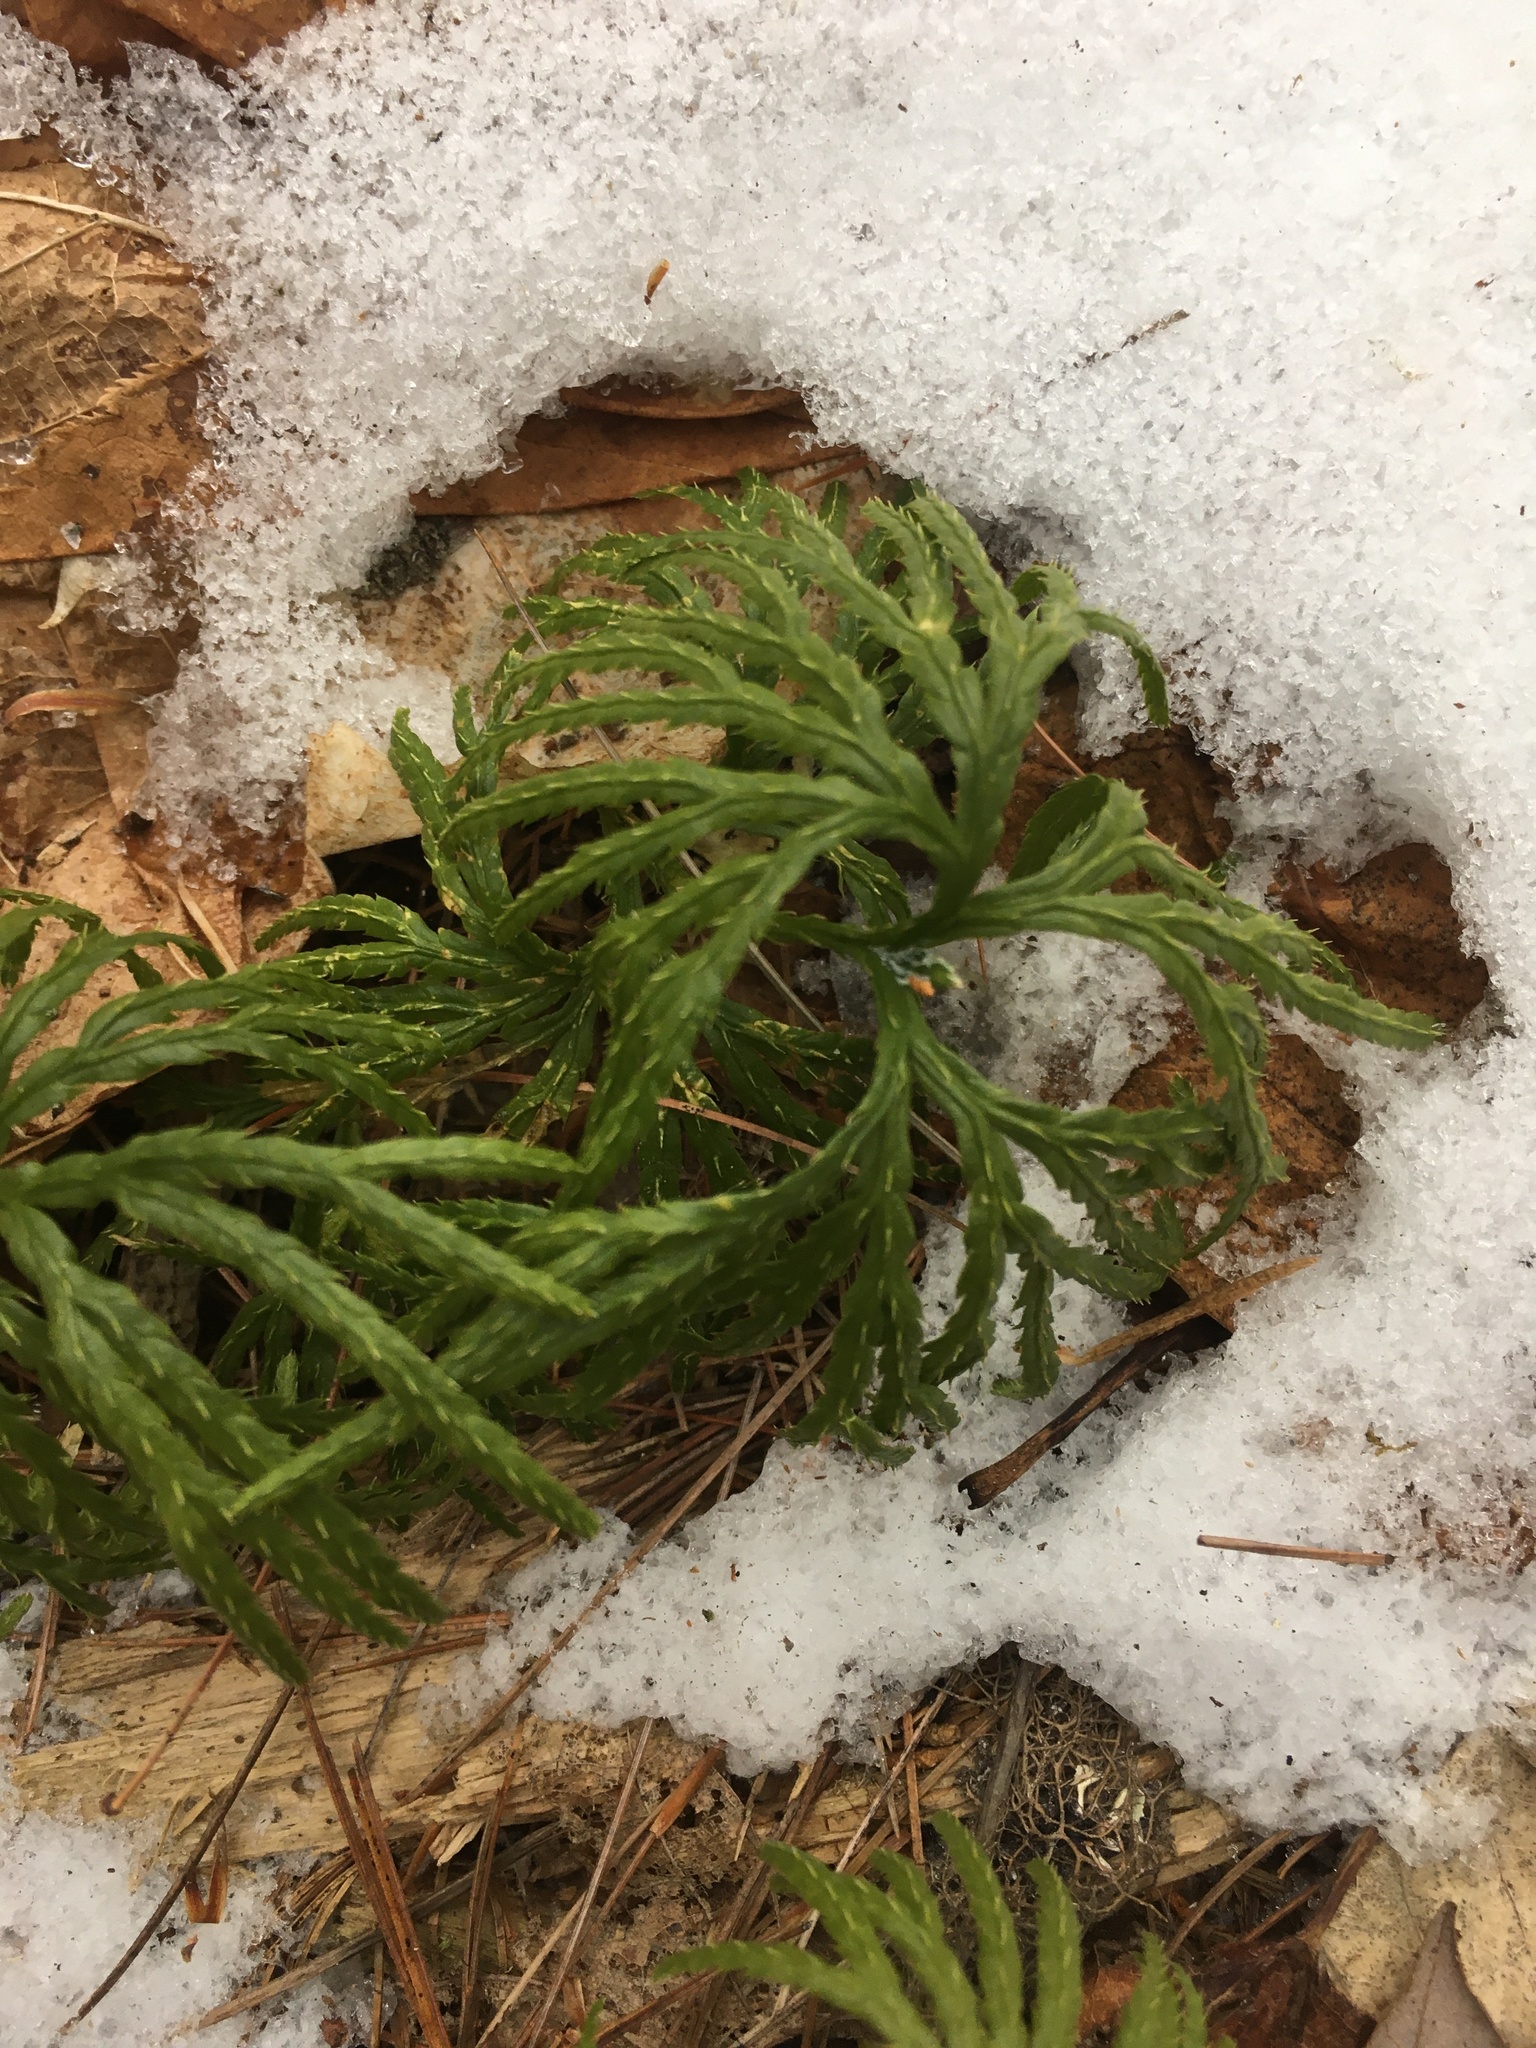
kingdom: Plantae
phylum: Tracheophyta
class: Lycopodiopsida
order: Lycopodiales
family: Lycopodiaceae
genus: Diphasiastrum
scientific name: Diphasiastrum digitatum
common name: Southern running-pine
